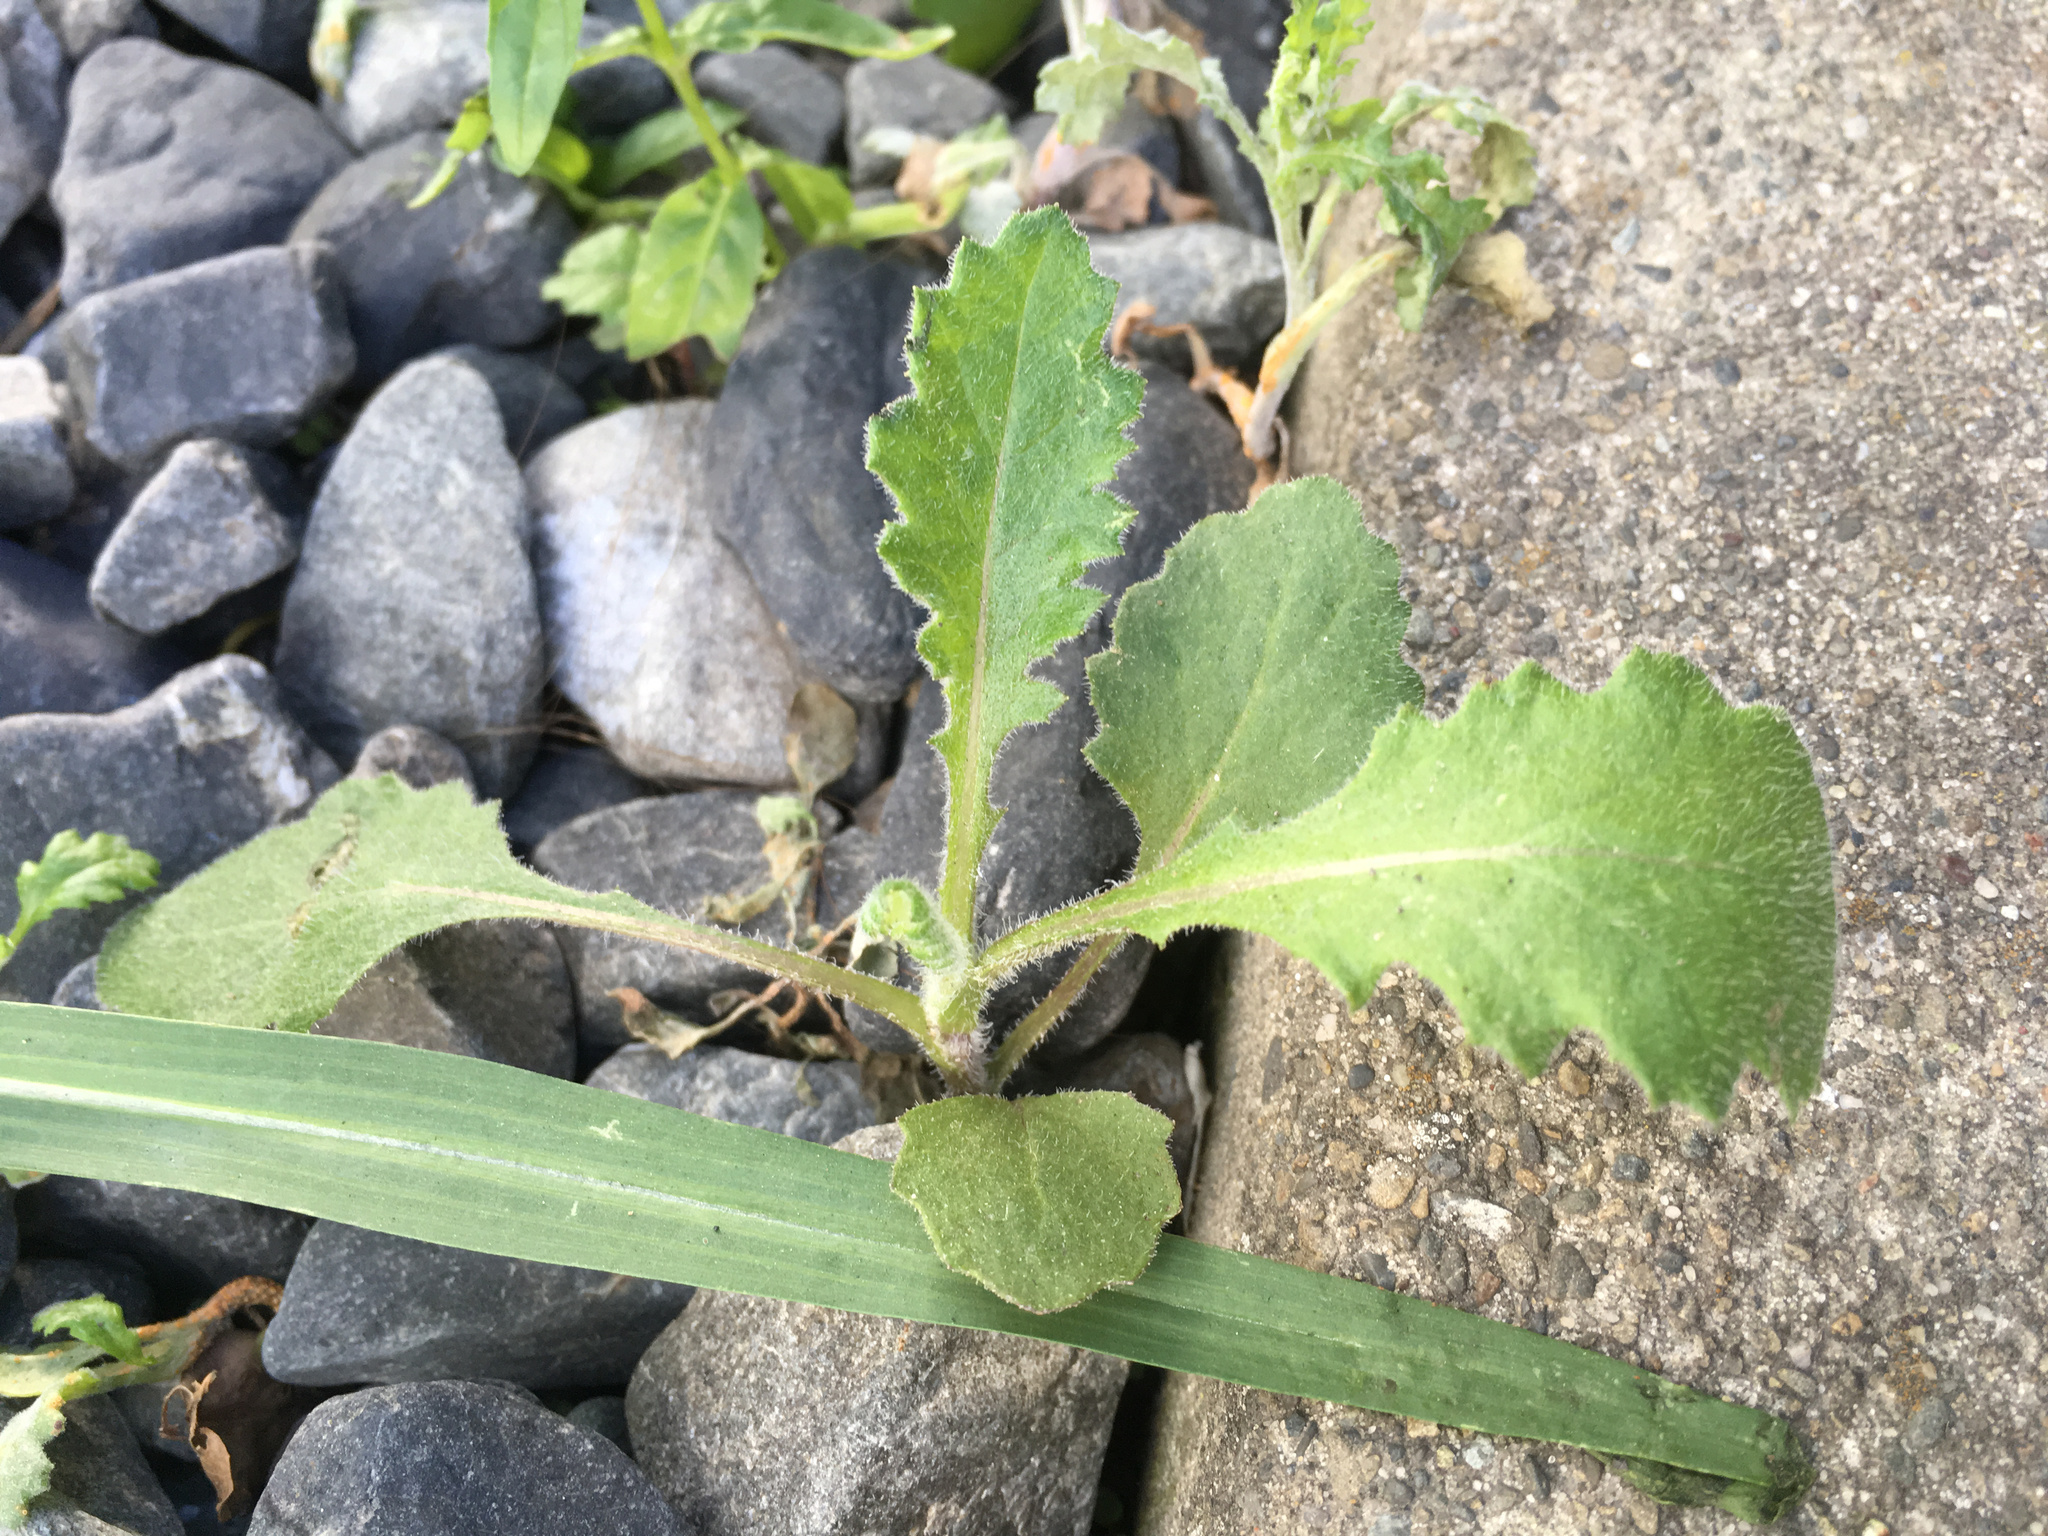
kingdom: Plantae
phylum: Tracheophyta
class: Magnoliopsida
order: Asterales
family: Asteraceae
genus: Senecio
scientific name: Senecio glomeratus
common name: Cutleaf burnweed
